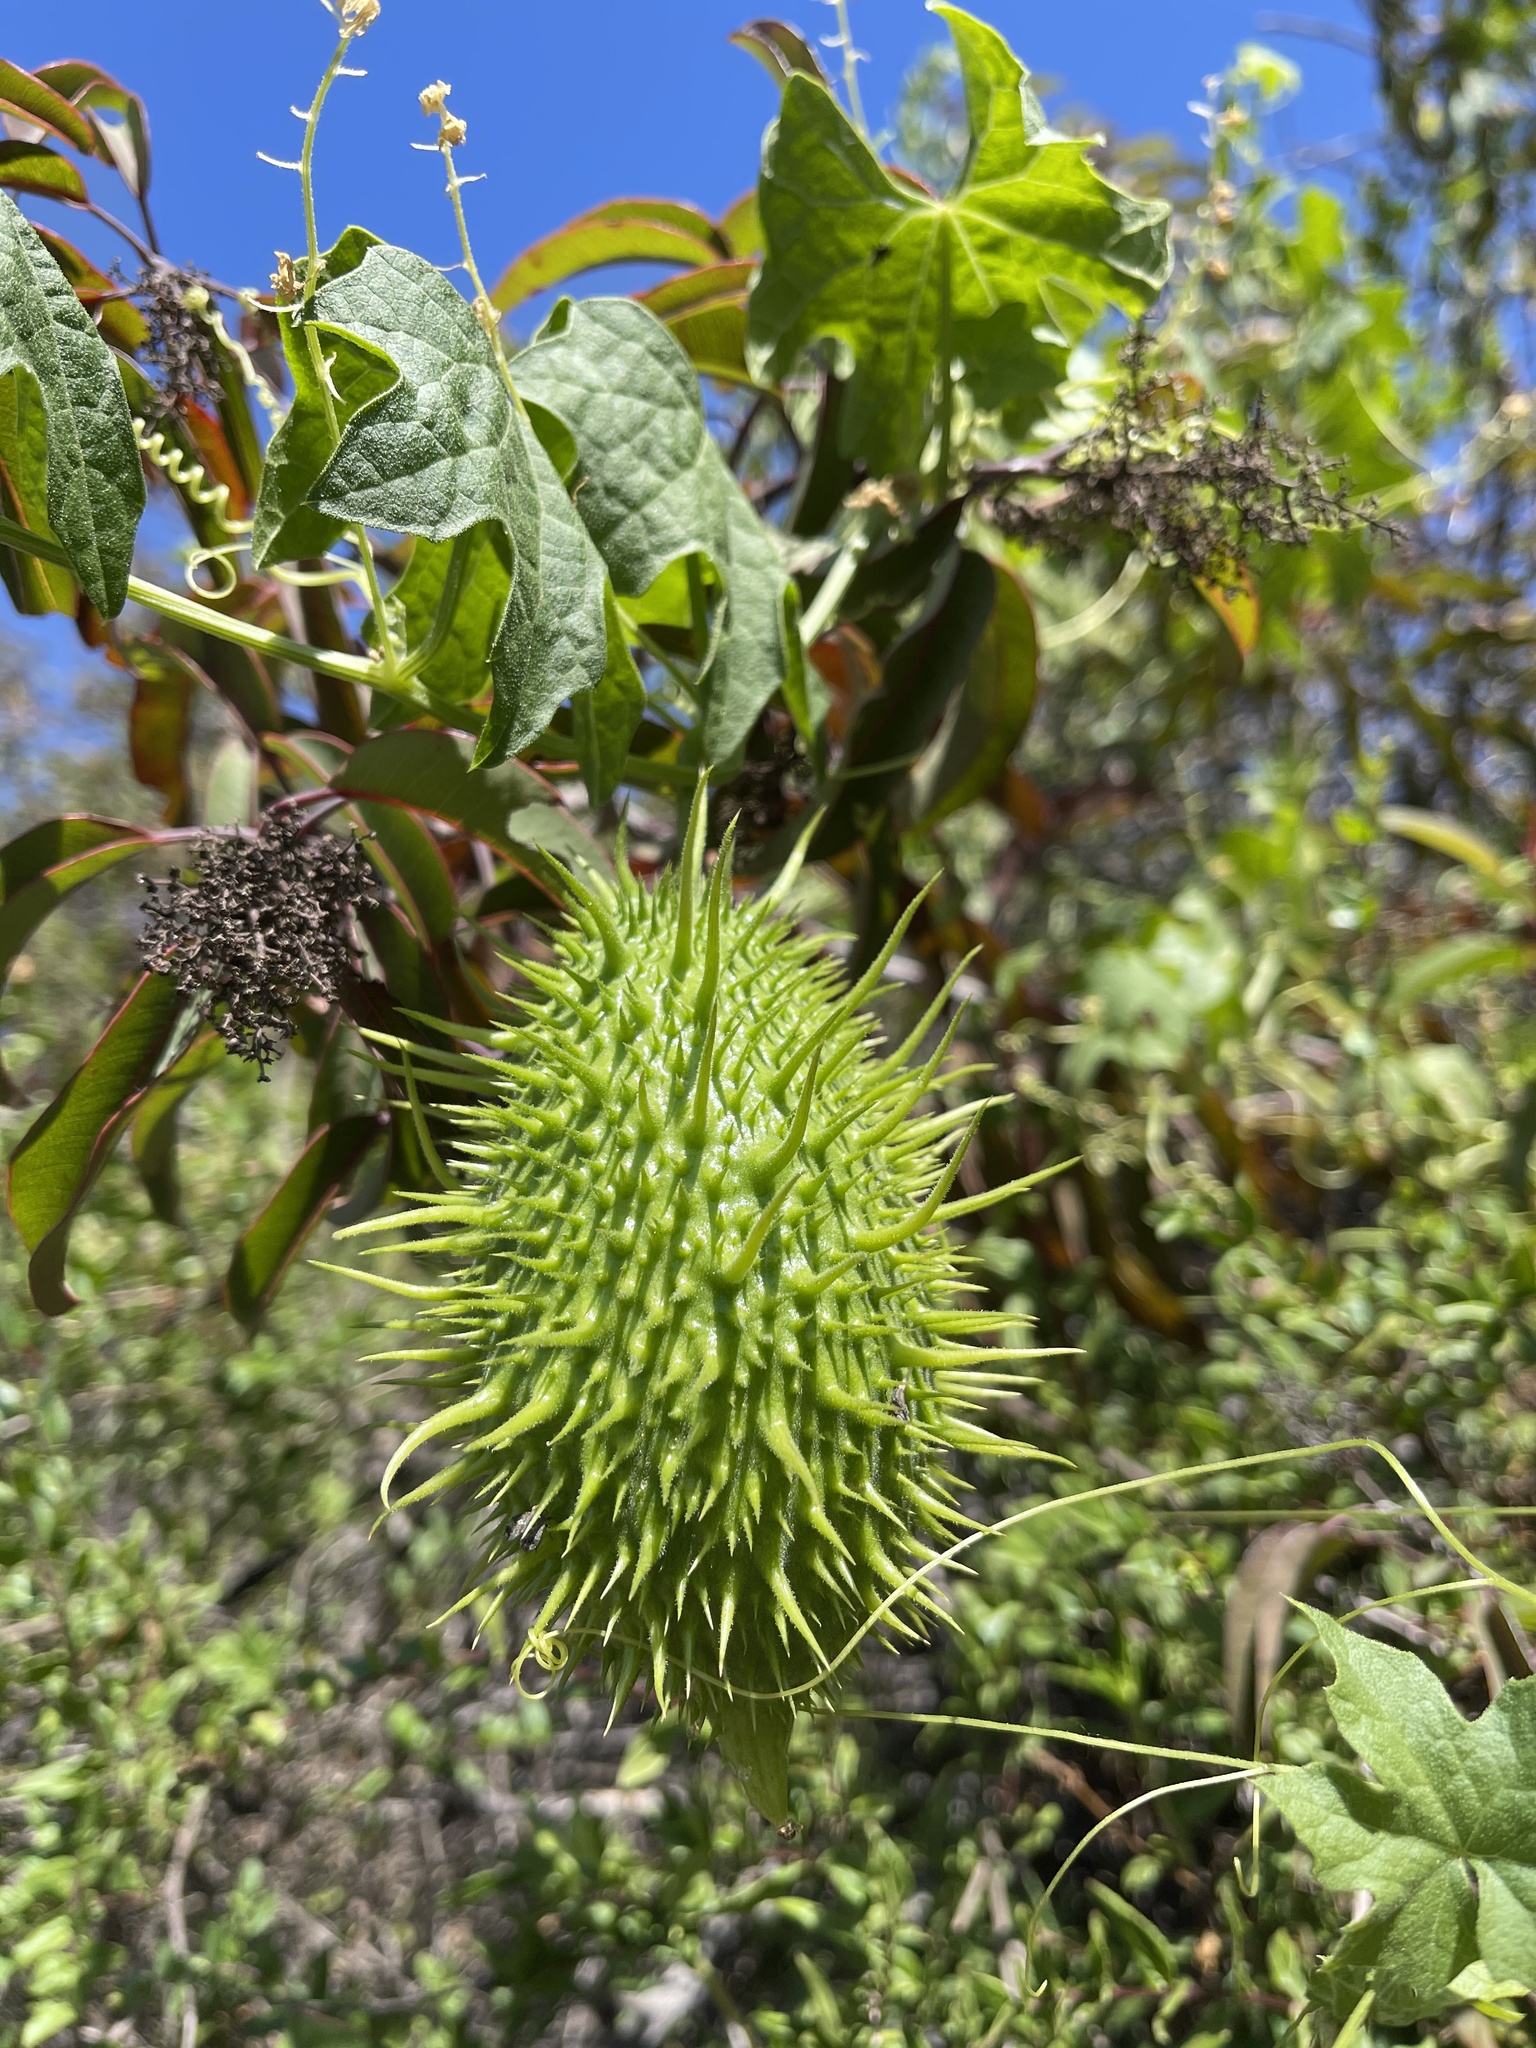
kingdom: Plantae
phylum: Tracheophyta
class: Magnoliopsida
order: Cucurbitales
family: Cucurbitaceae
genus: Marah
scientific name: Marah macrocarpa
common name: Cucamonga manroot
